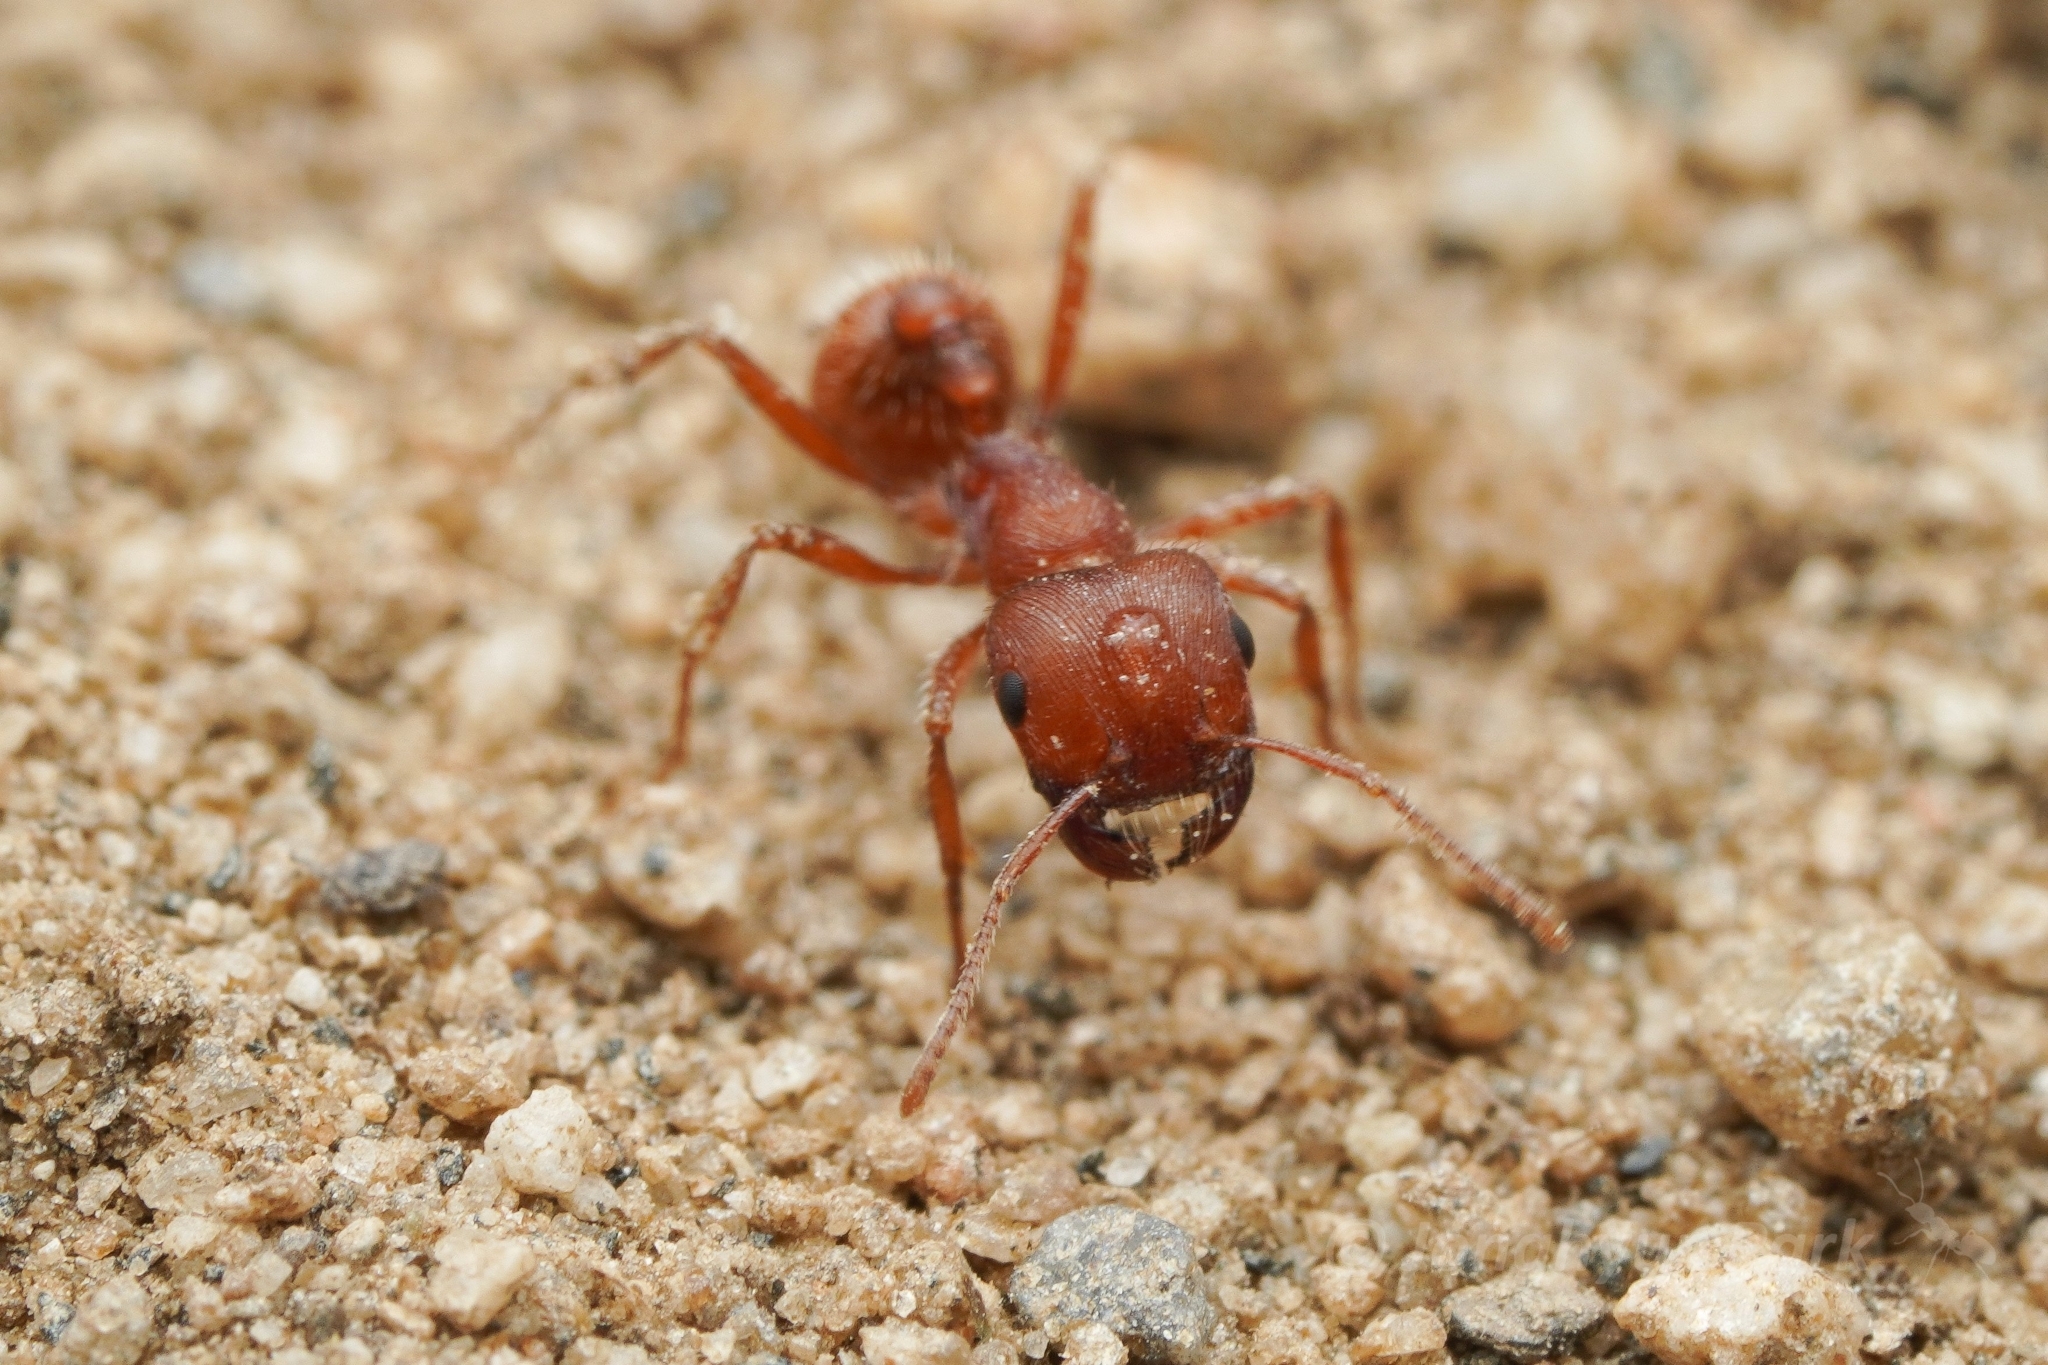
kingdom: Animalia
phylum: Arthropoda
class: Insecta
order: Hymenoptera
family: Formicidae
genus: Pogonomyrmex
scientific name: Pogonomyrmex brevispinosus
